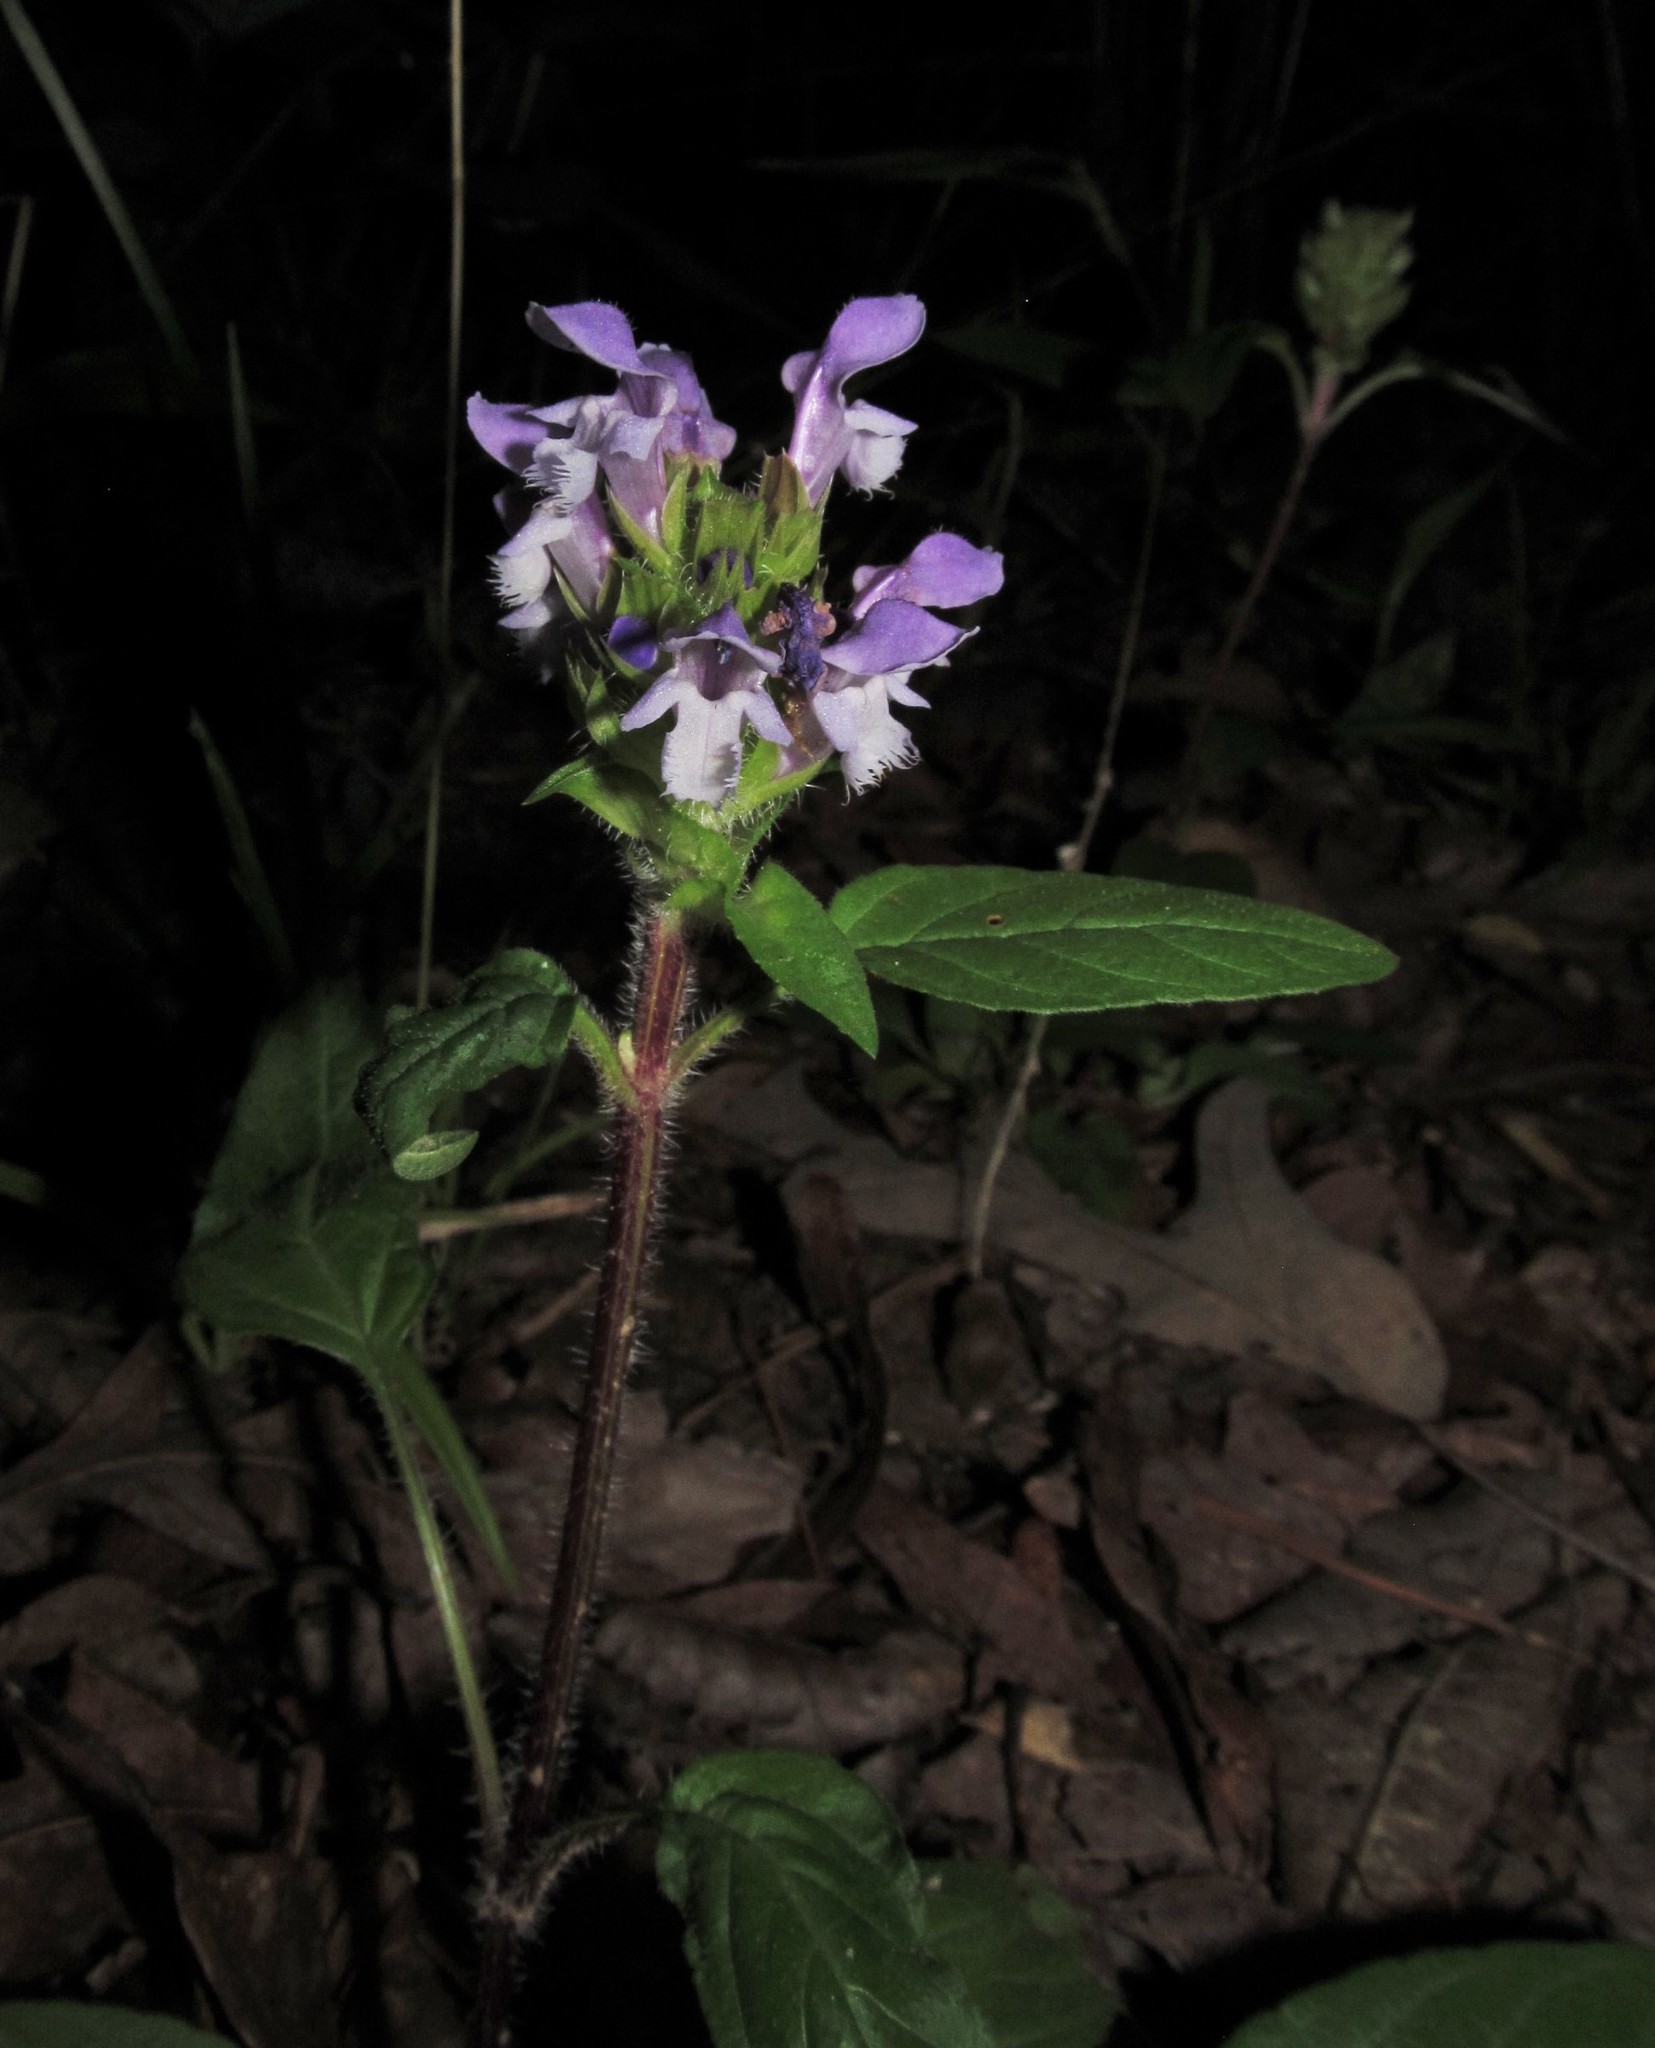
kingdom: Plantae
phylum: Tracheophyta
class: Magnoliopsida
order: Lamiales
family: Lamiaceae
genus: Prunella
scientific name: Prunella vulgaris
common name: Heal-all
